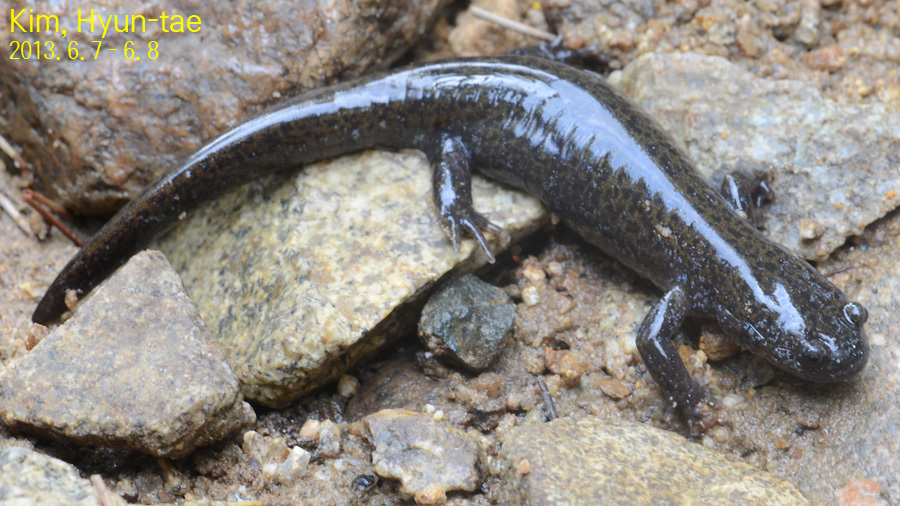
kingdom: Animalia
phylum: Chordata
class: Amphibia
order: Caudata
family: Hynobiidae
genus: Hynobius
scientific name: Hynobius quelpaertensis
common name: Cheju salamander
